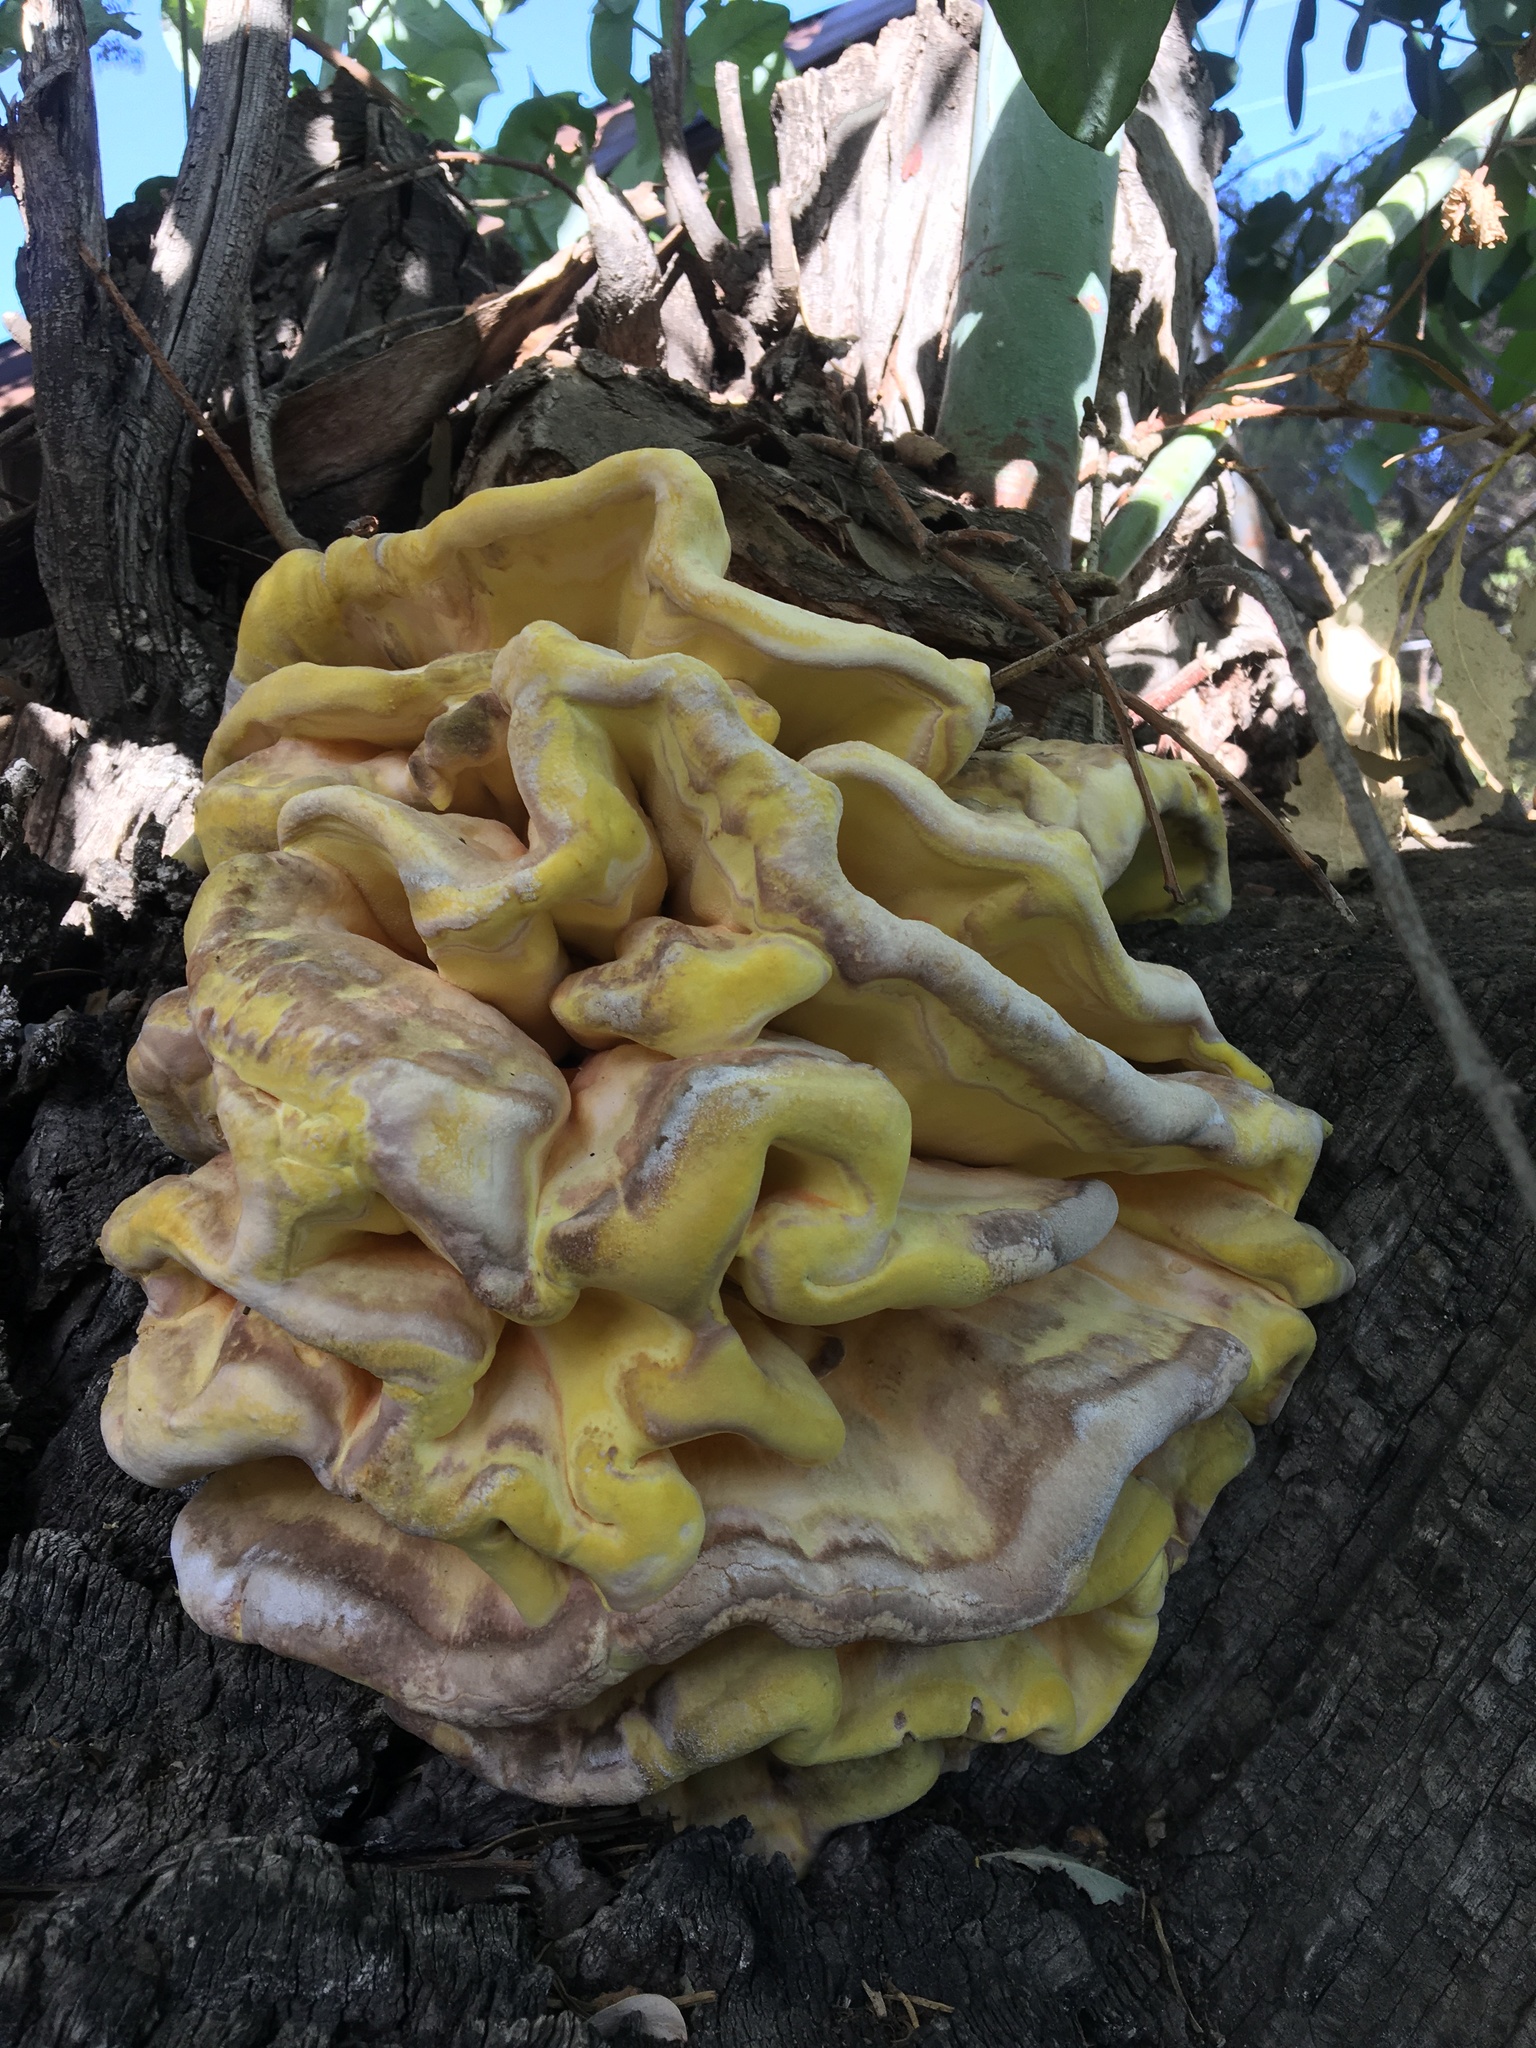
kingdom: Fungi
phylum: Basidiomycota
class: Agaricomycetes
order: Polyporales
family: Laetiporaceae
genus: Laetiporus
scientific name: Laetiporus gilbertsonii
